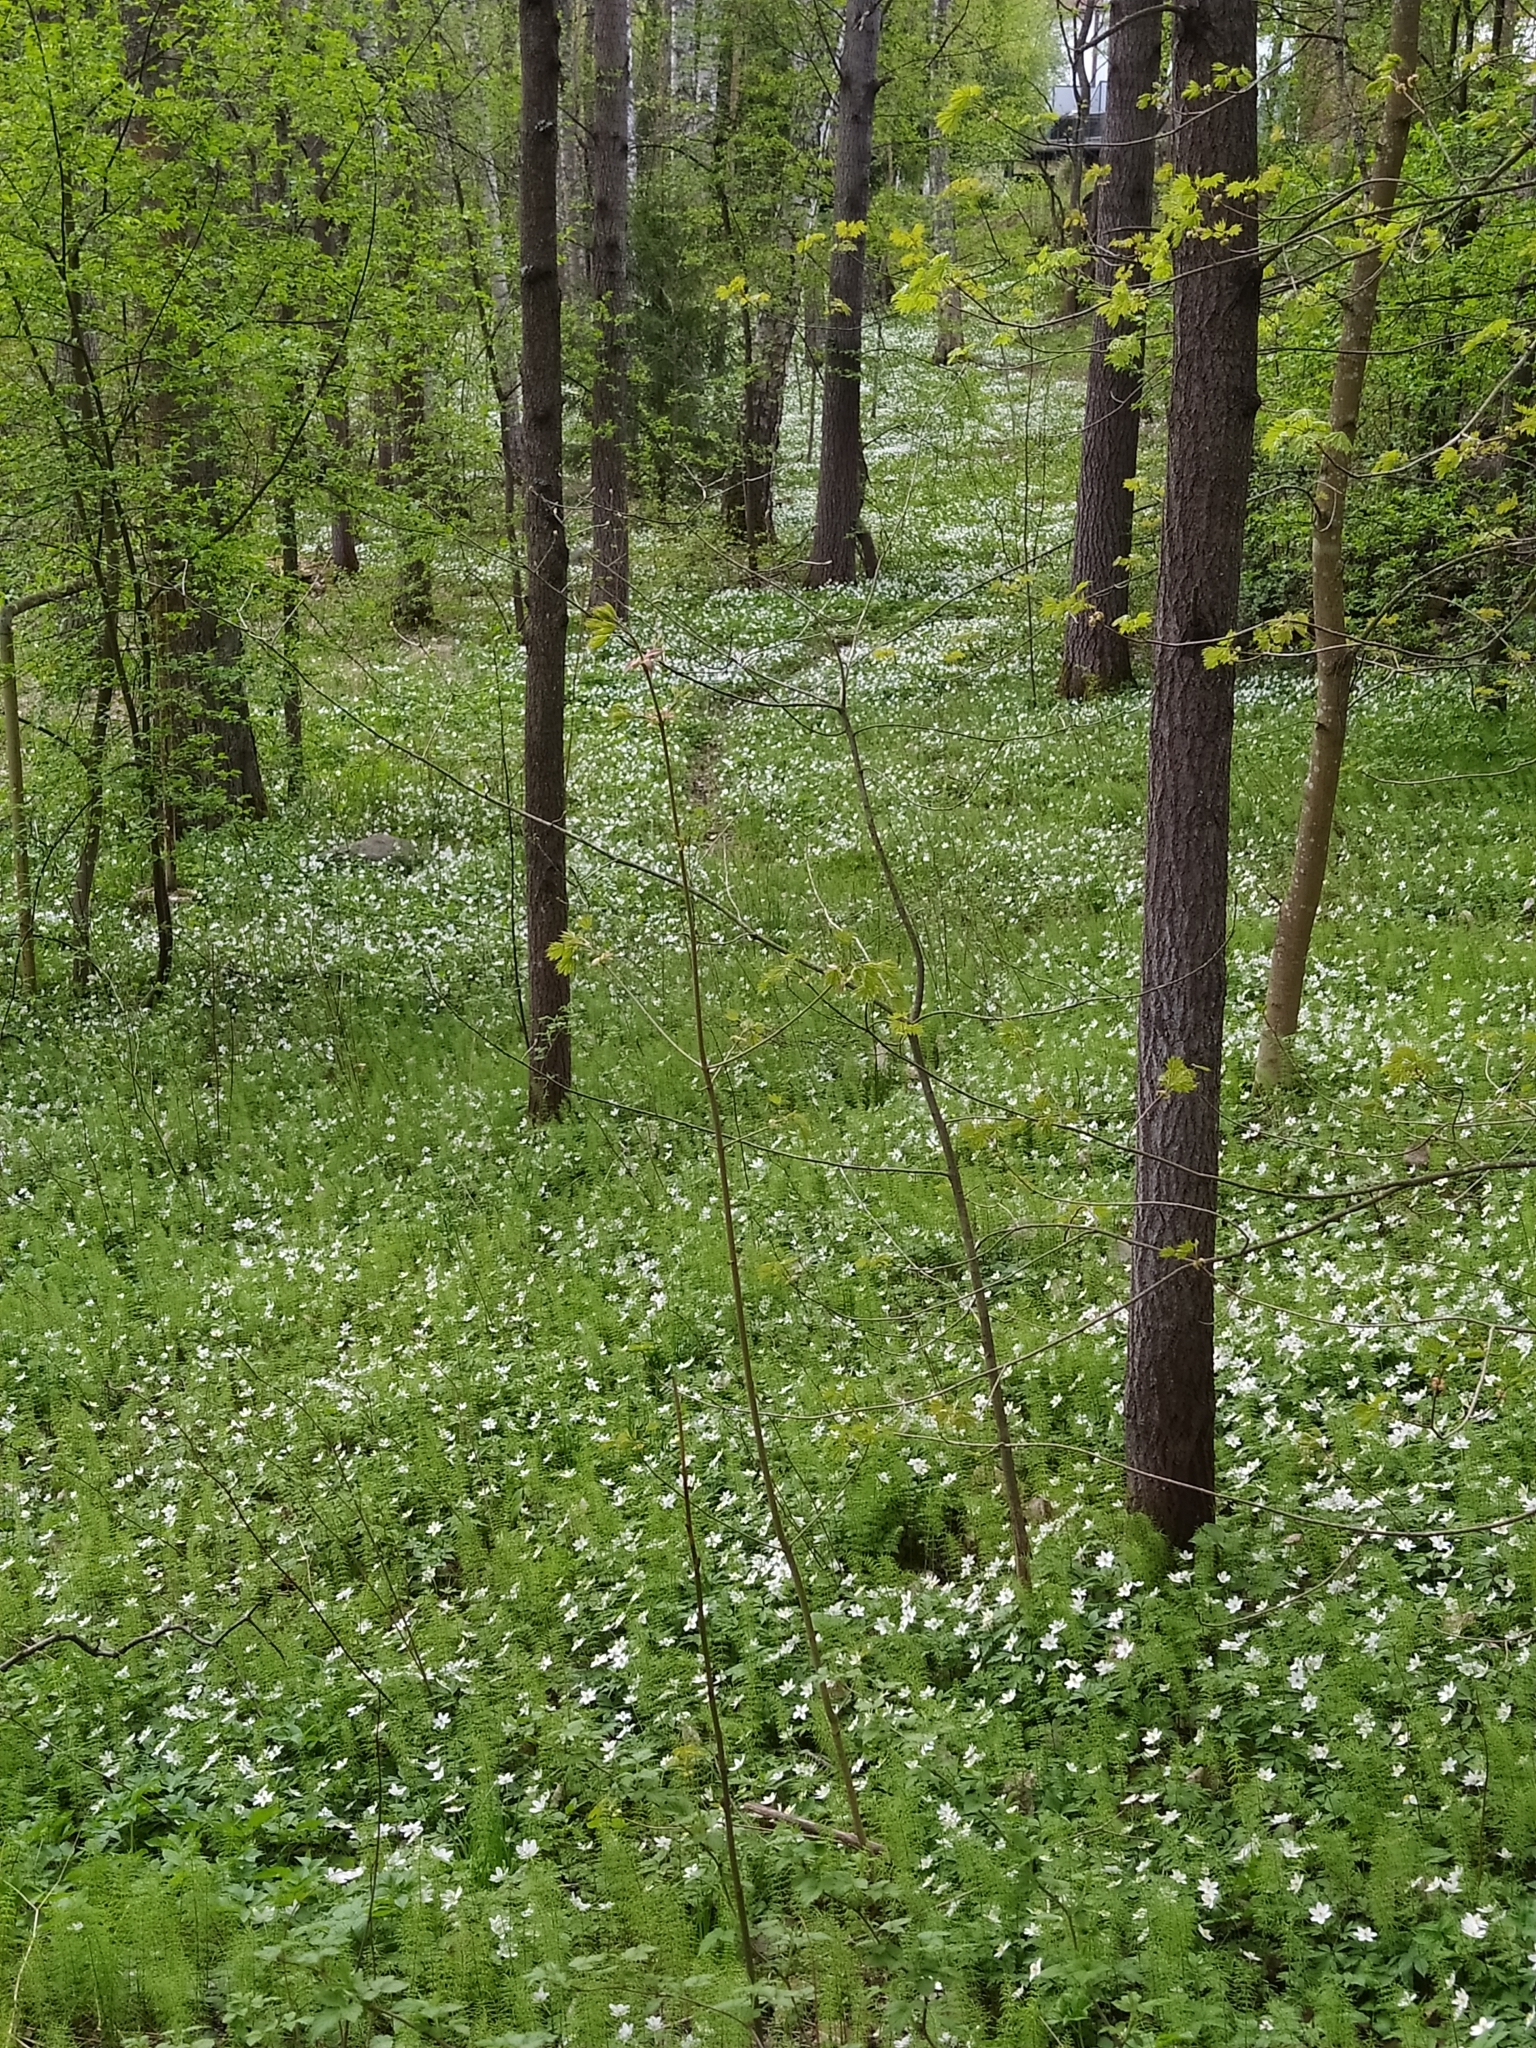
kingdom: Plantae
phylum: Tracheophyta
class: Magnoliopsida
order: Ranunculales
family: Ranunculaceae
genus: Anemone
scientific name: Anemone nemorosa
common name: Wood anemone
